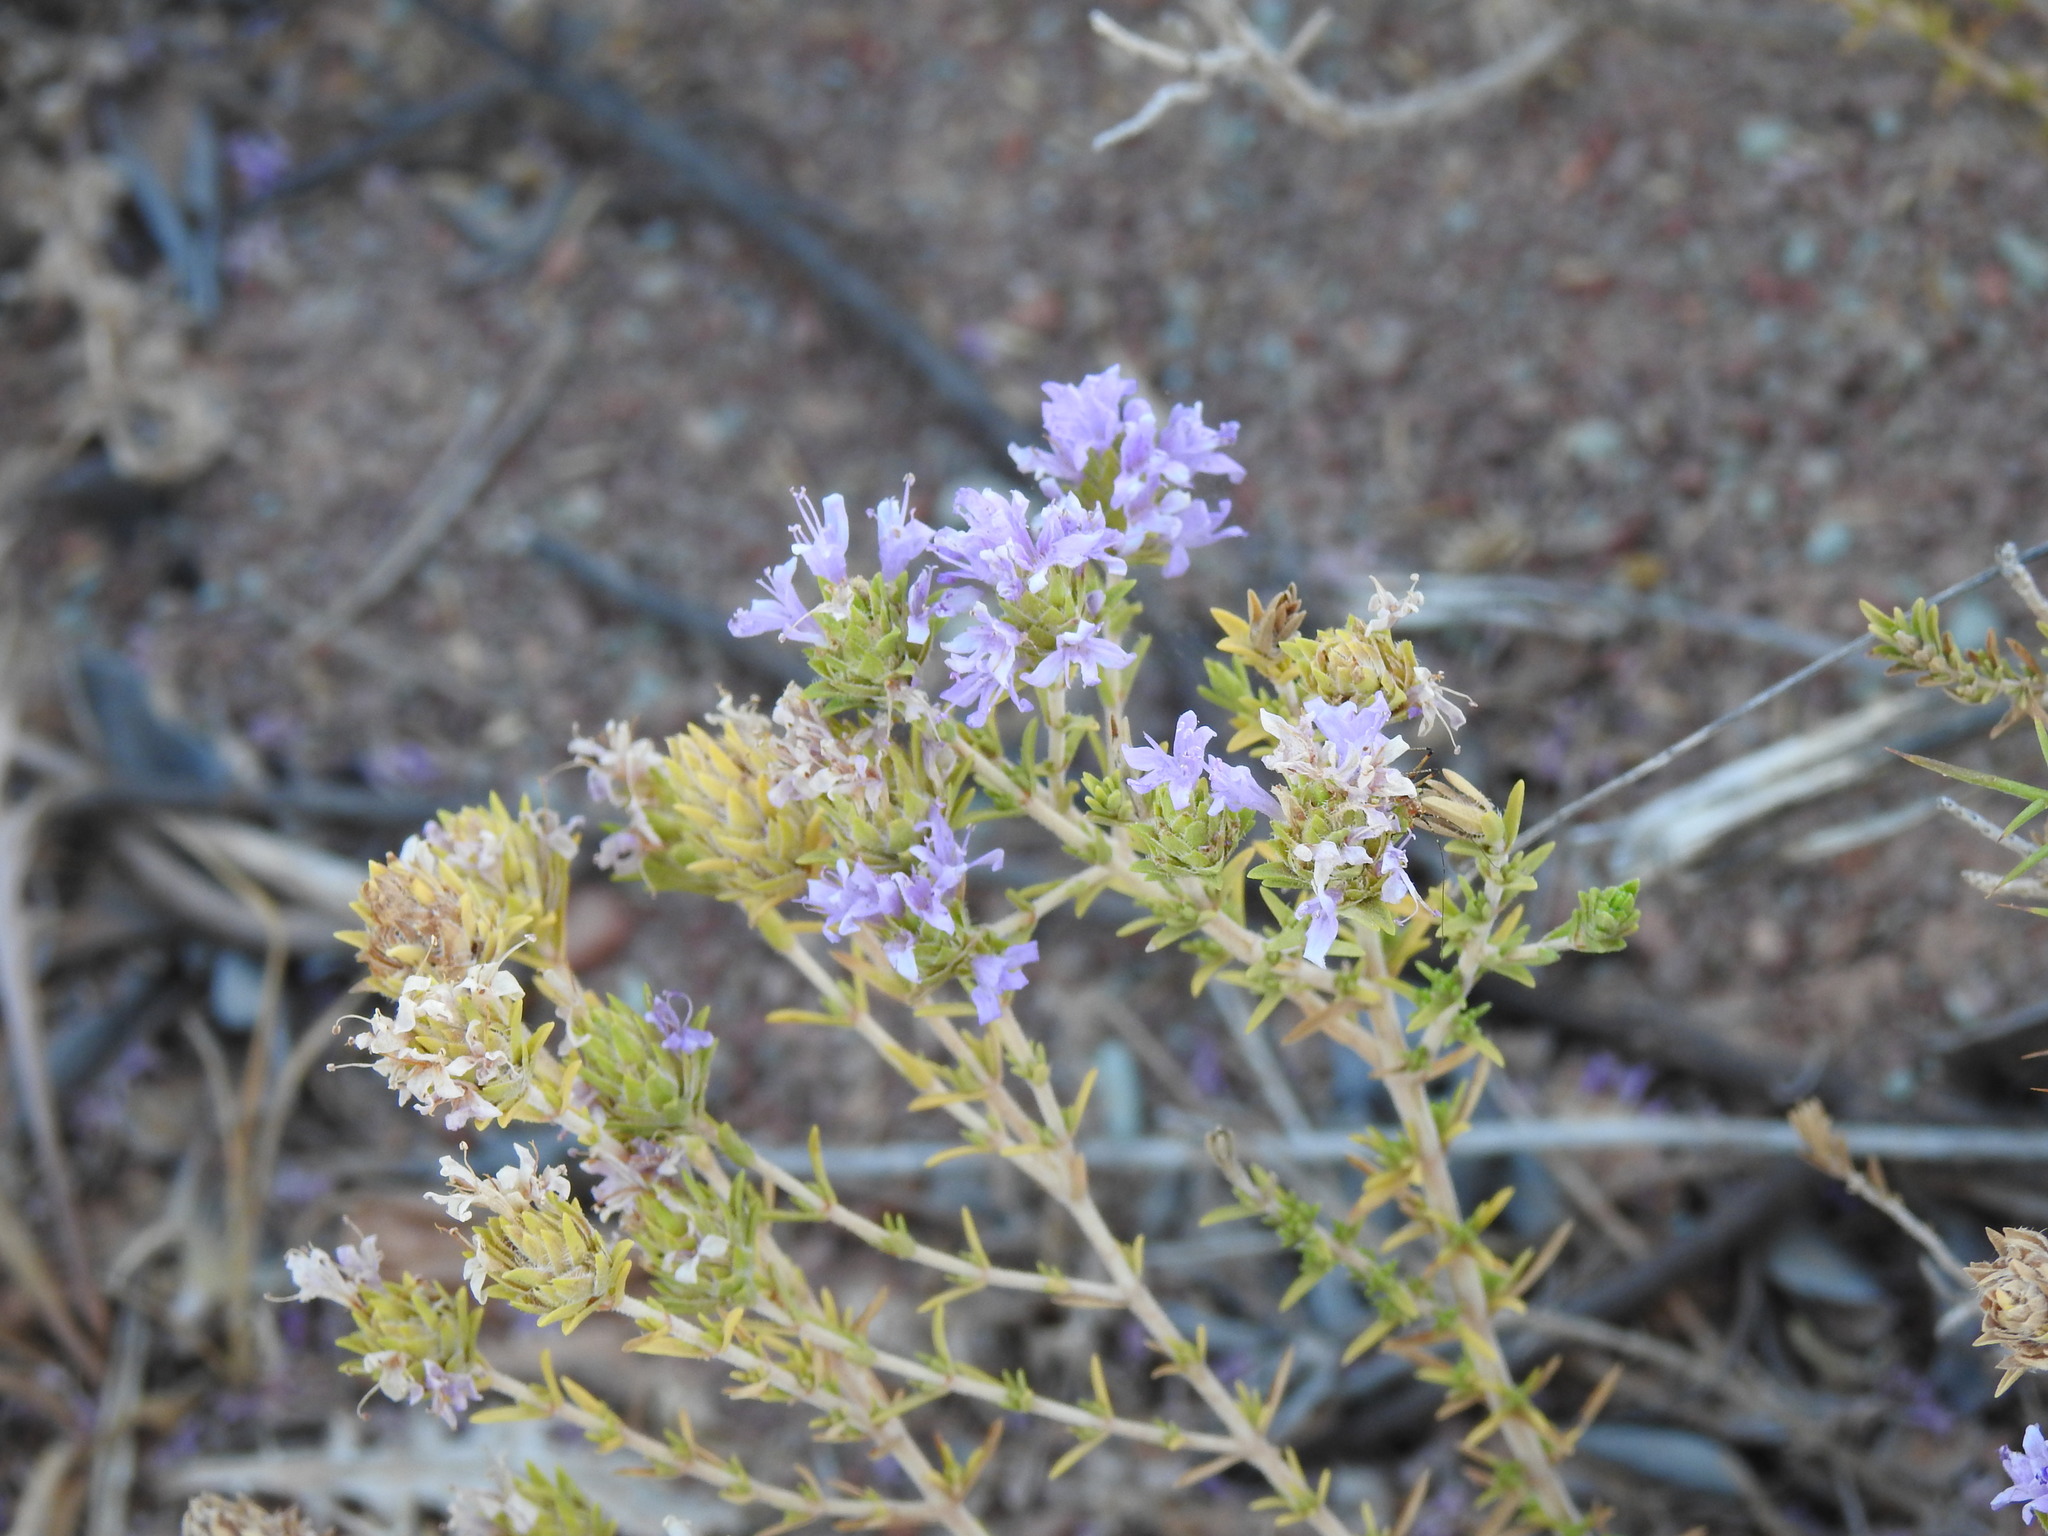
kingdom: Plantae
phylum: Tracheophyta
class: Magnoliopsida
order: Lamiales
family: Lamiaceae
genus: Thymbra
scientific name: Thymbra capitata
